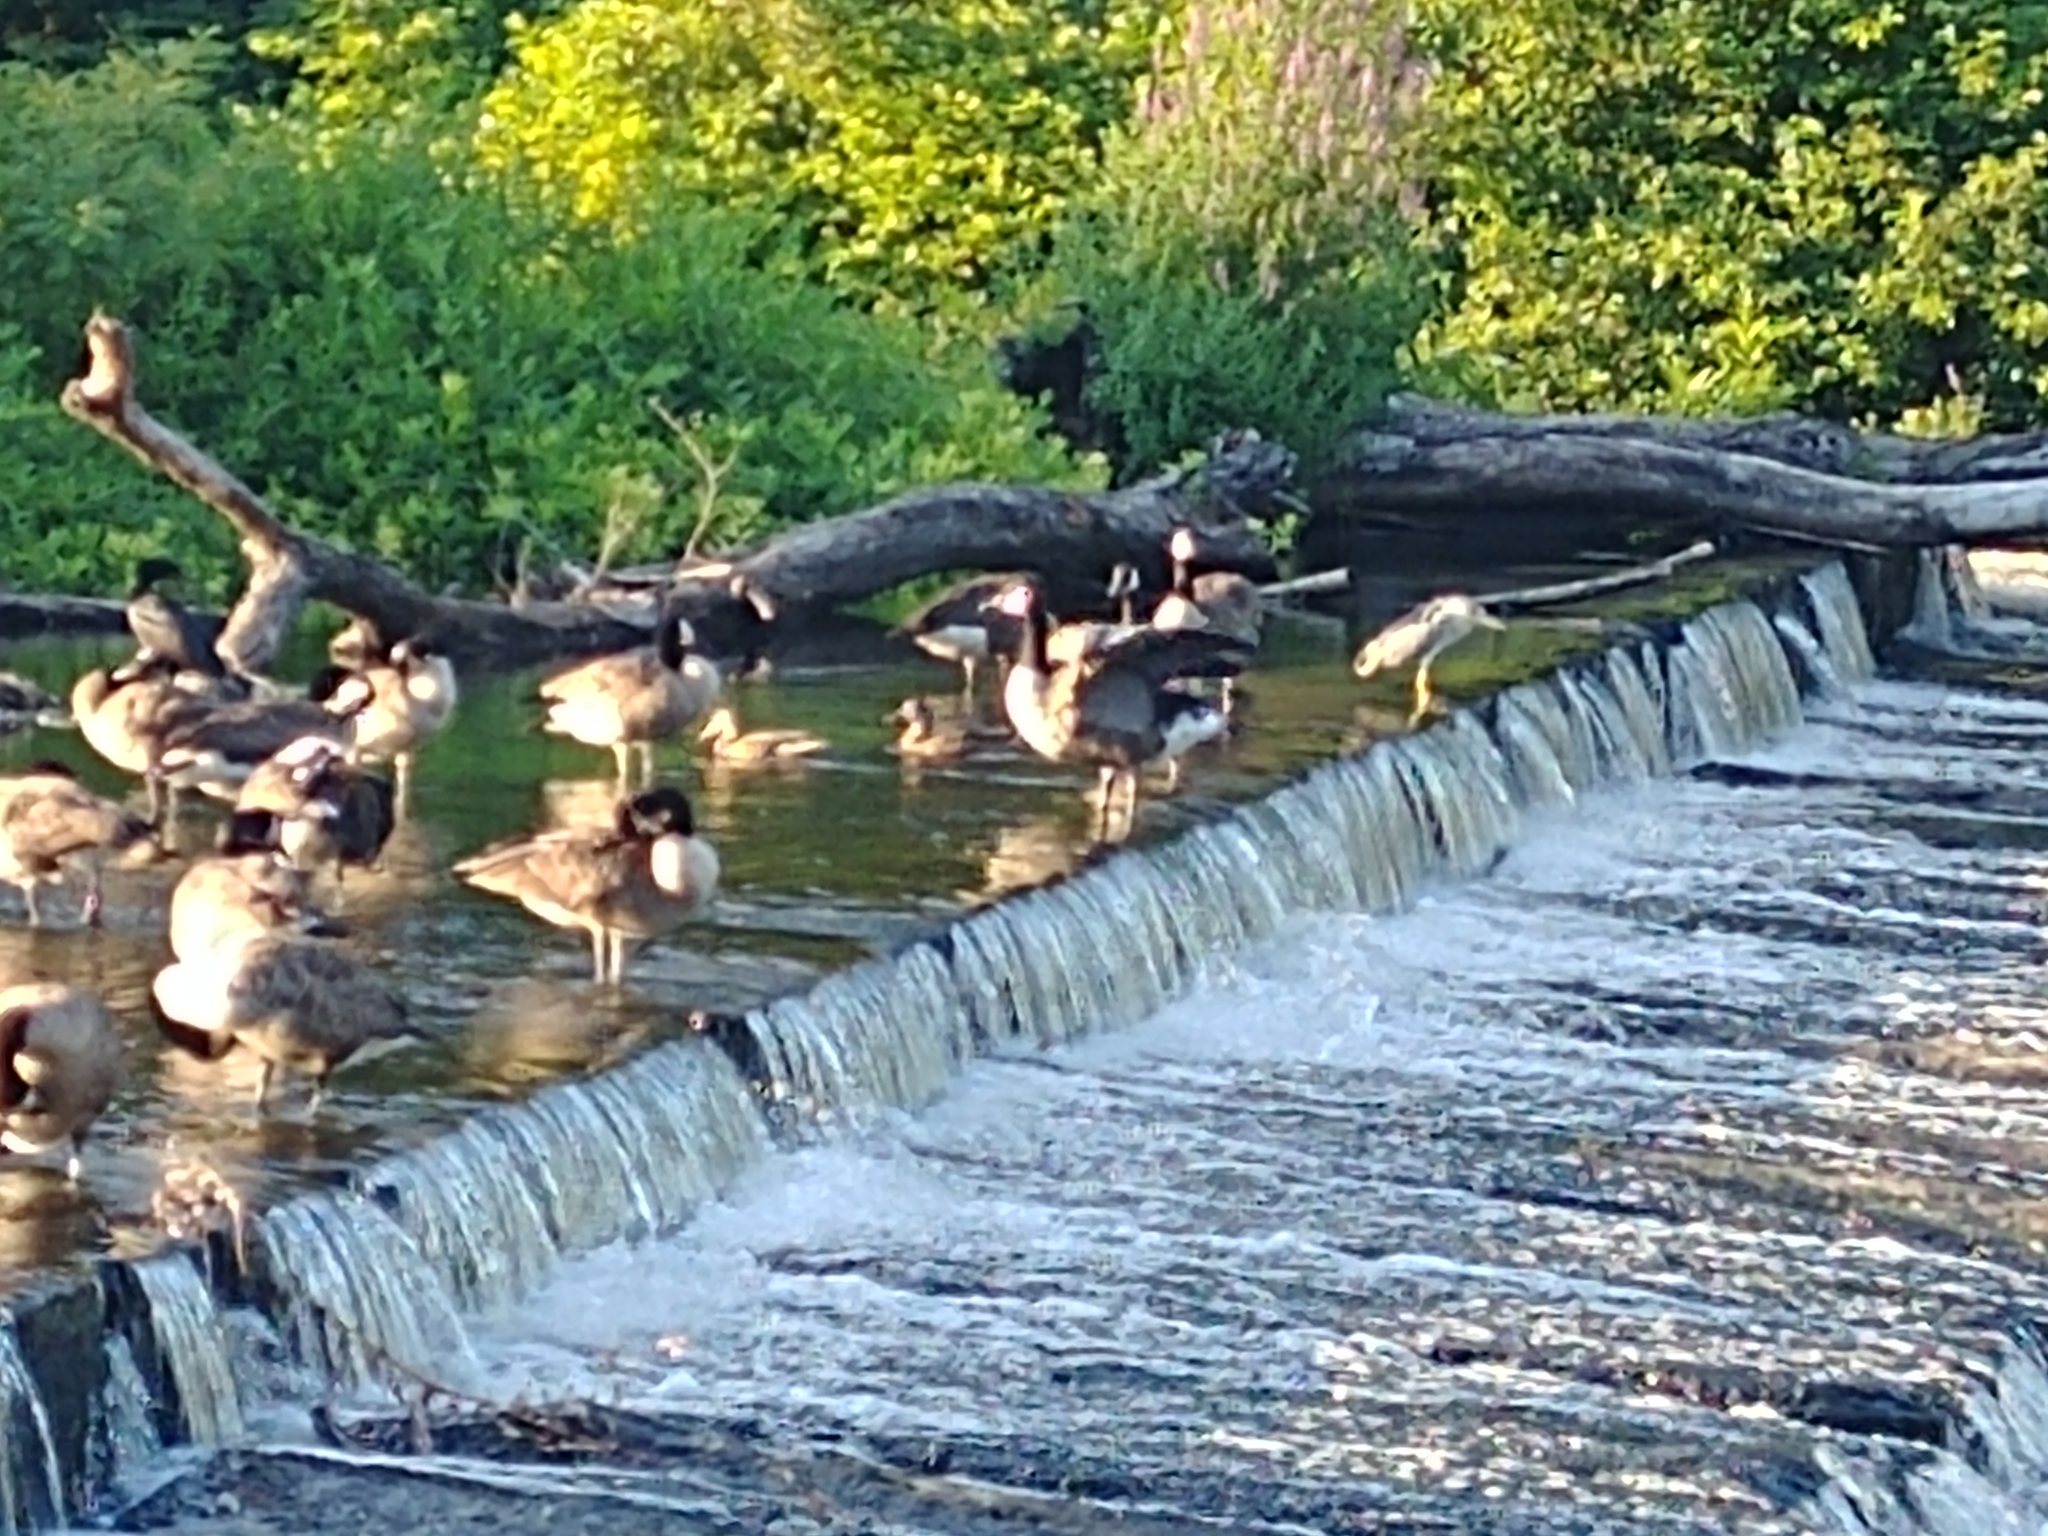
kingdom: Animalia
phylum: Chordata
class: Aves
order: Suliformes
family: Phalacrocoracidae
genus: Phalacrocorax
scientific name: Phalacrocorax auritus
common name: Double-crested cormorant
